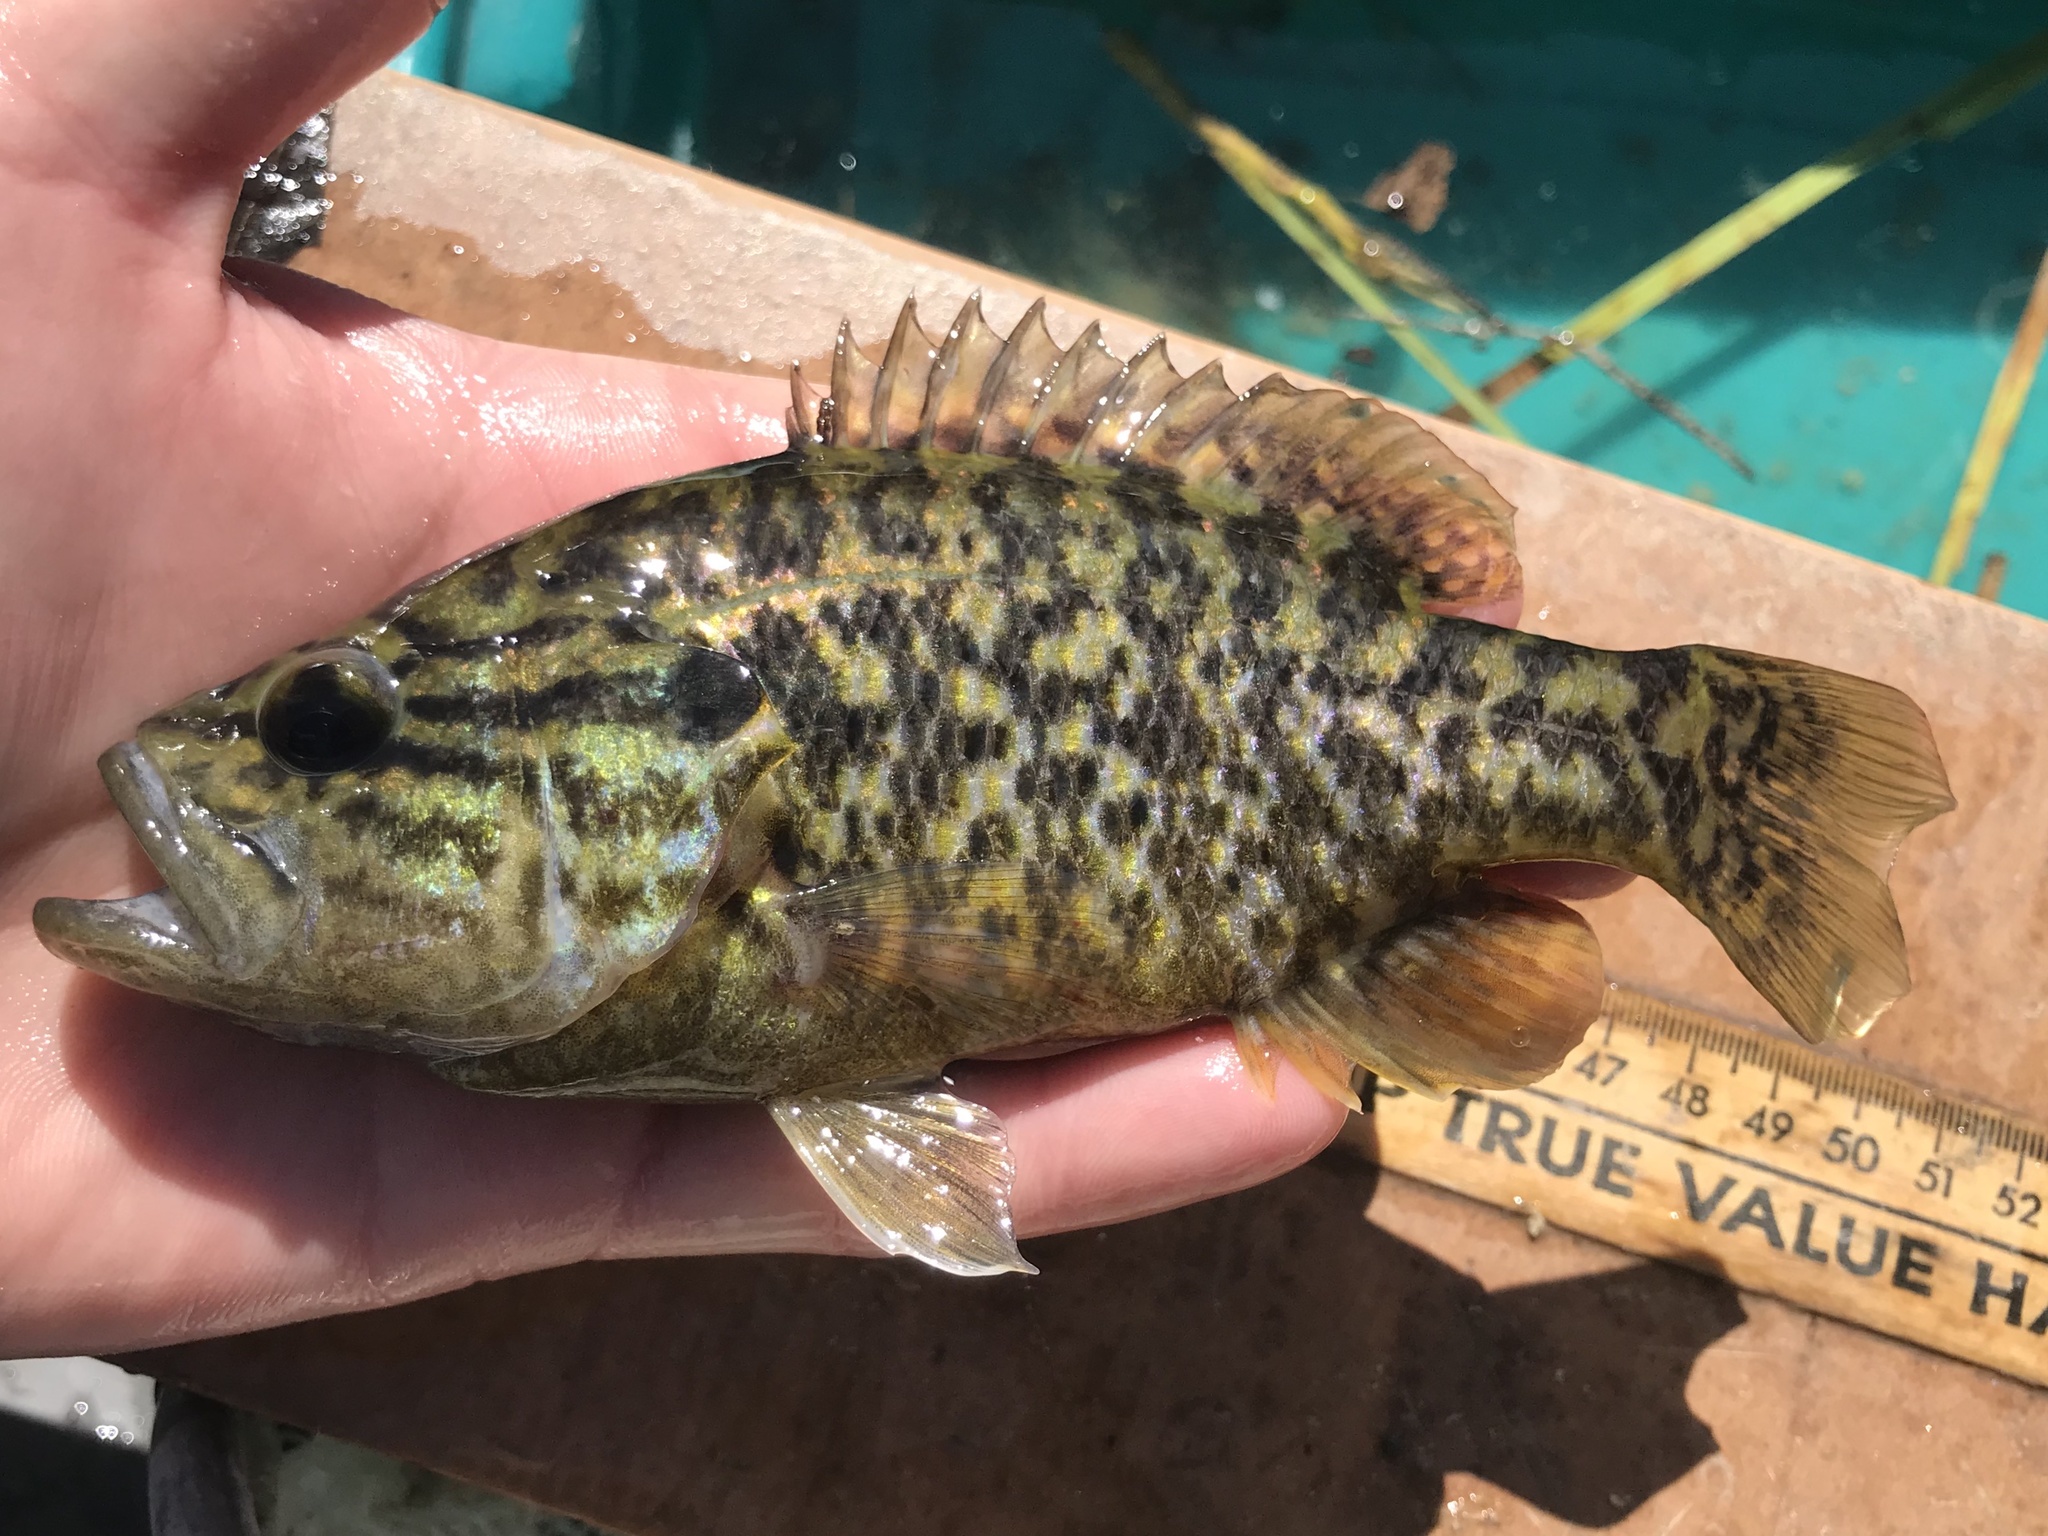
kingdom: Animalia
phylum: Chordata
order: Perciformes
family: Centrarchidae
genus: Lepomis
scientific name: Lepomis gulosus
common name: Warmouth
